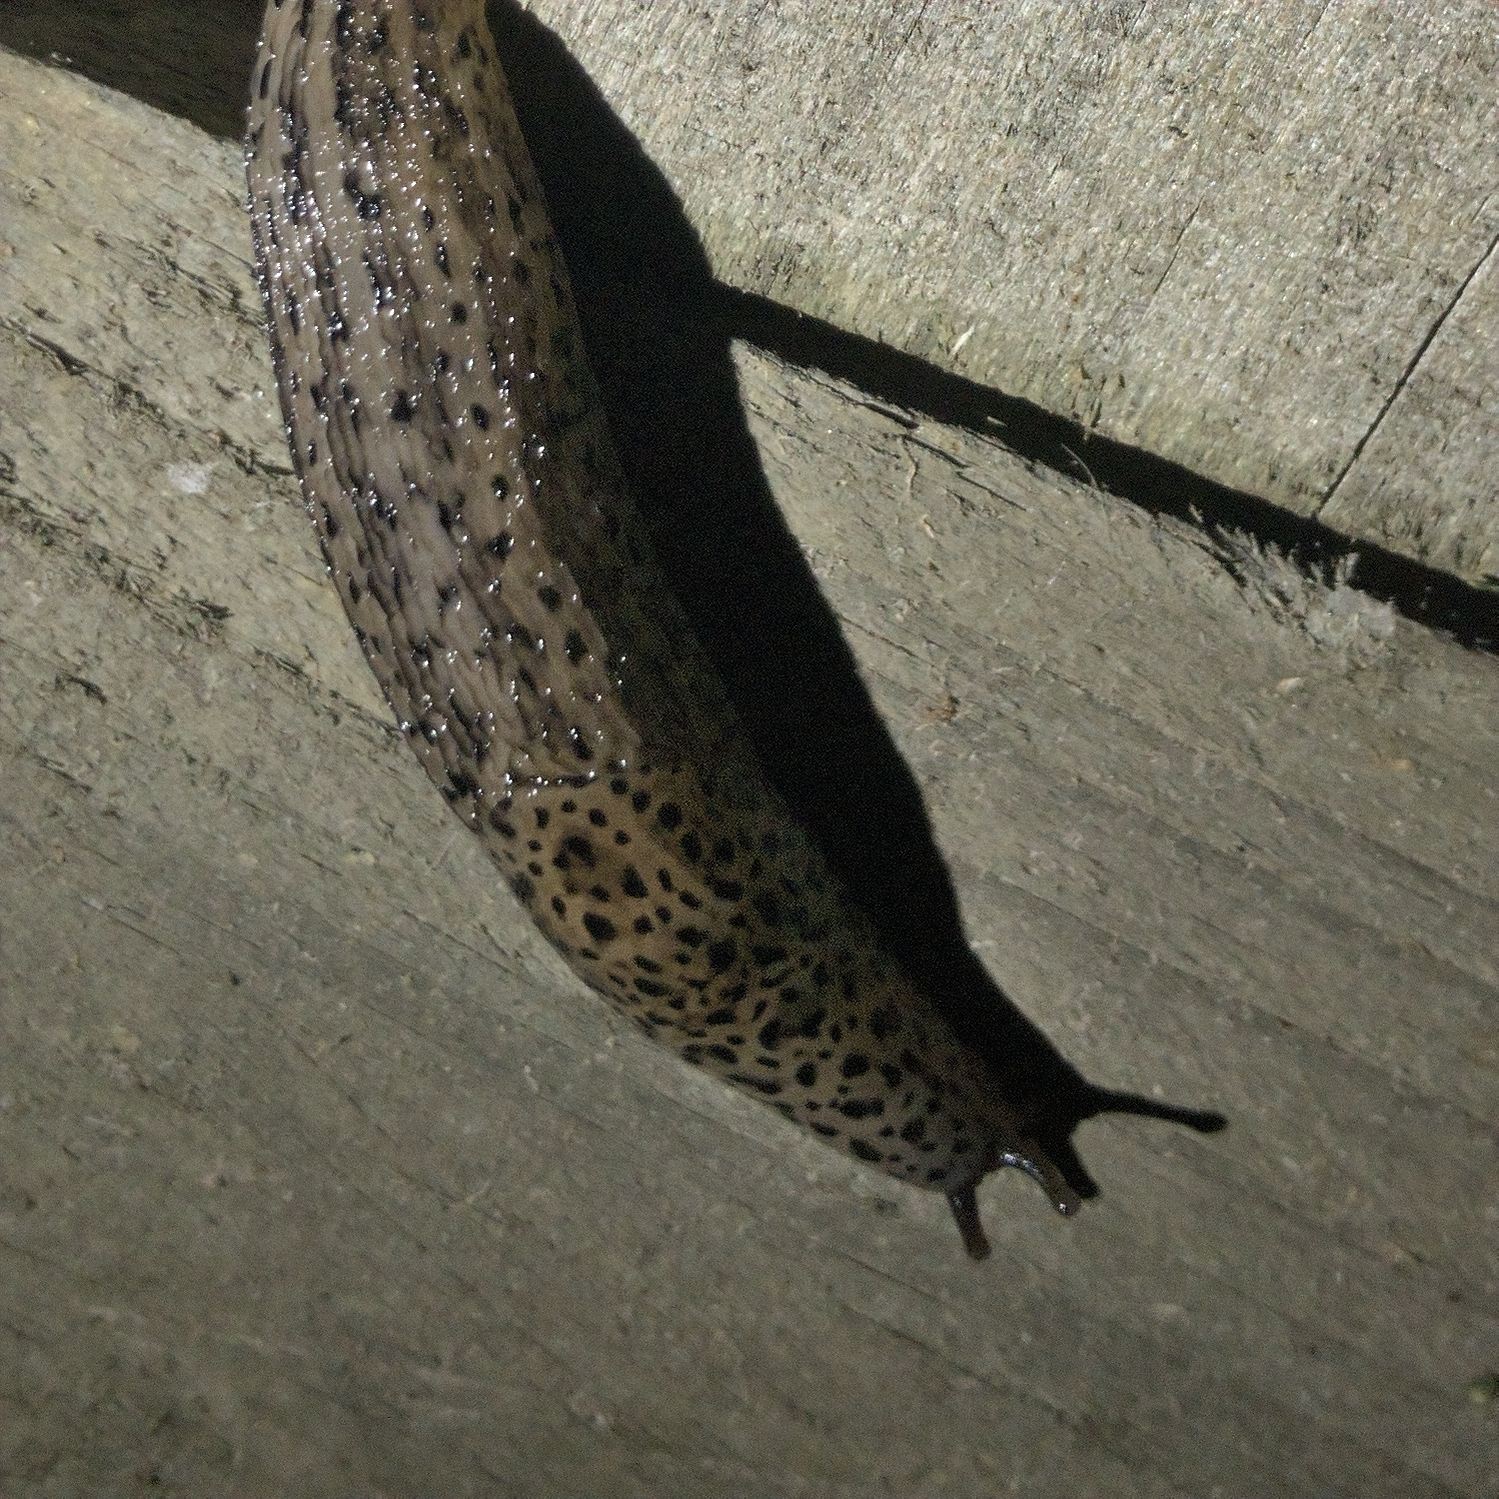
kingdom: Animalia
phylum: Mollusca
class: Gastropoda
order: Stylommatophora
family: Limacidae
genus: Limax
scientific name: Limax maximus
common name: Great grey slug
